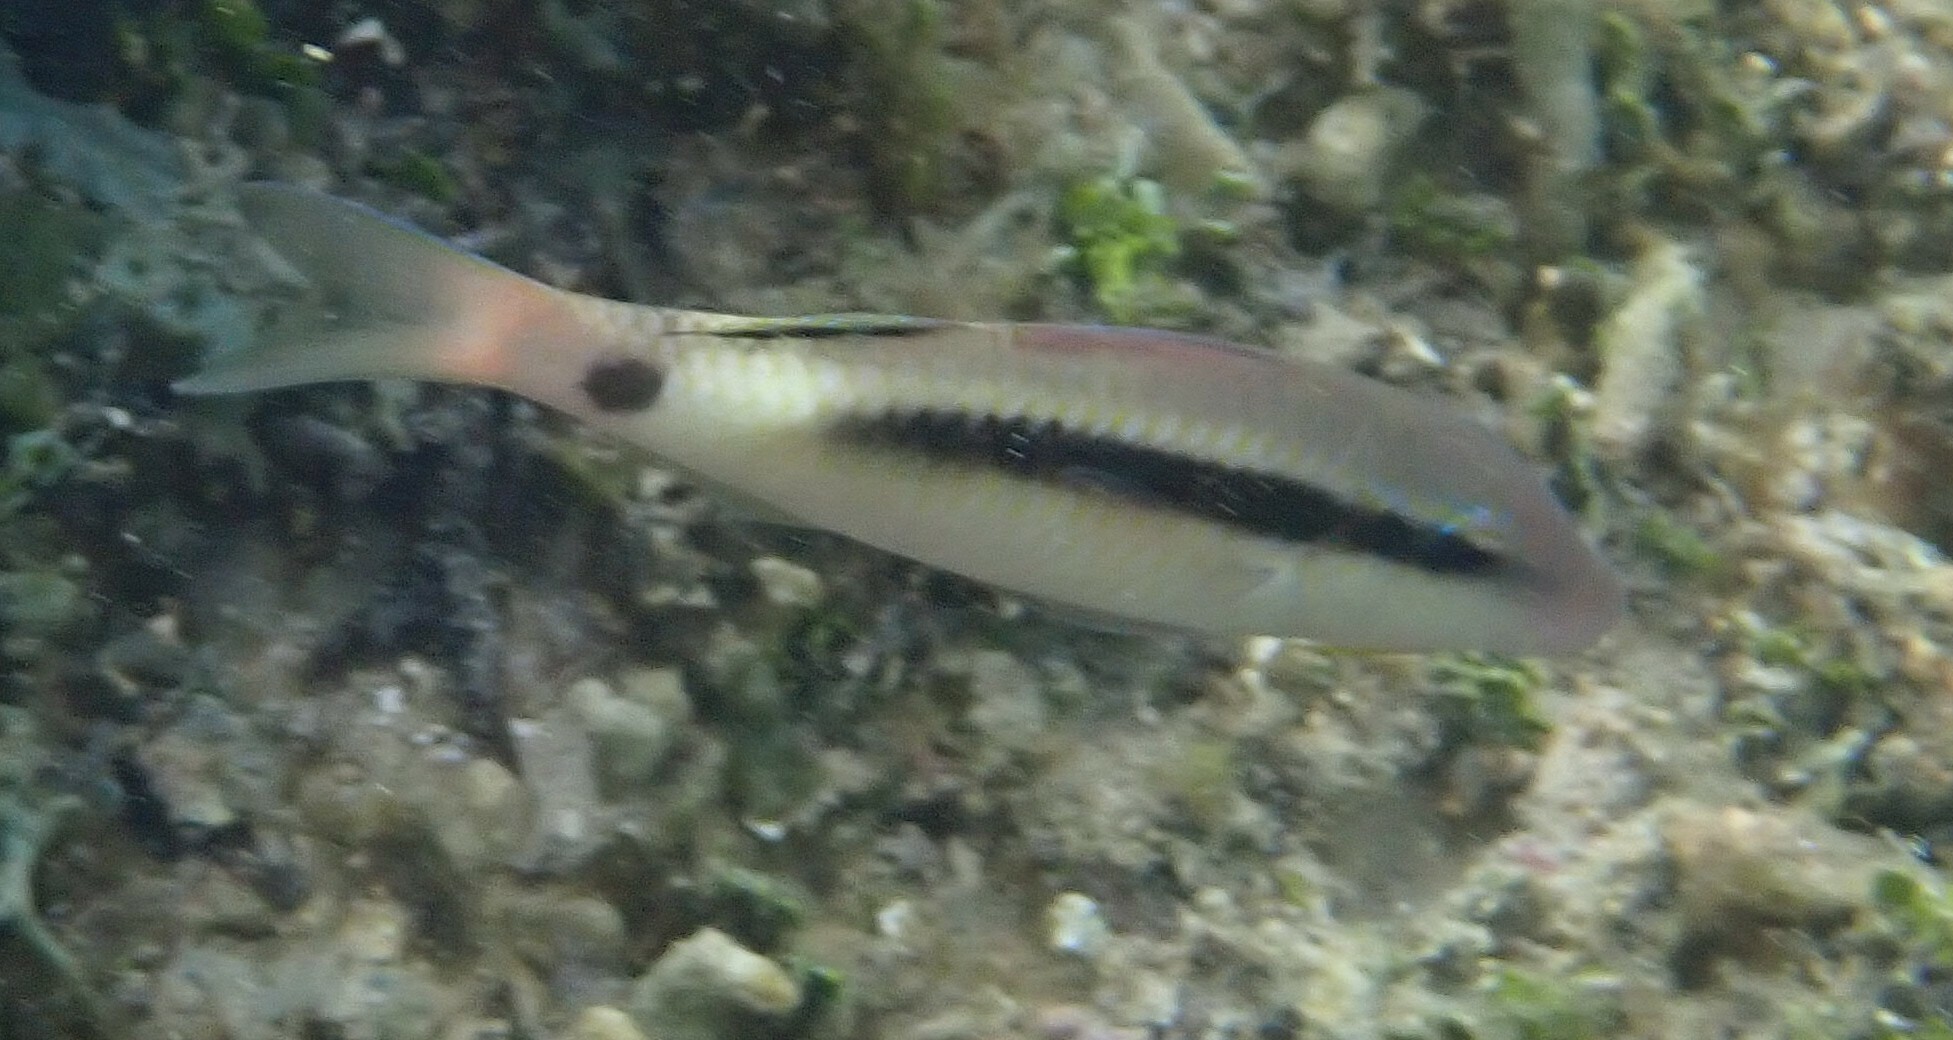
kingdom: Animalia
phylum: Chordata
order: Perciformes
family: Mullidae
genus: Parupeneus
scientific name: Parupeneus macronemus
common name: Long-barbel goatfish
